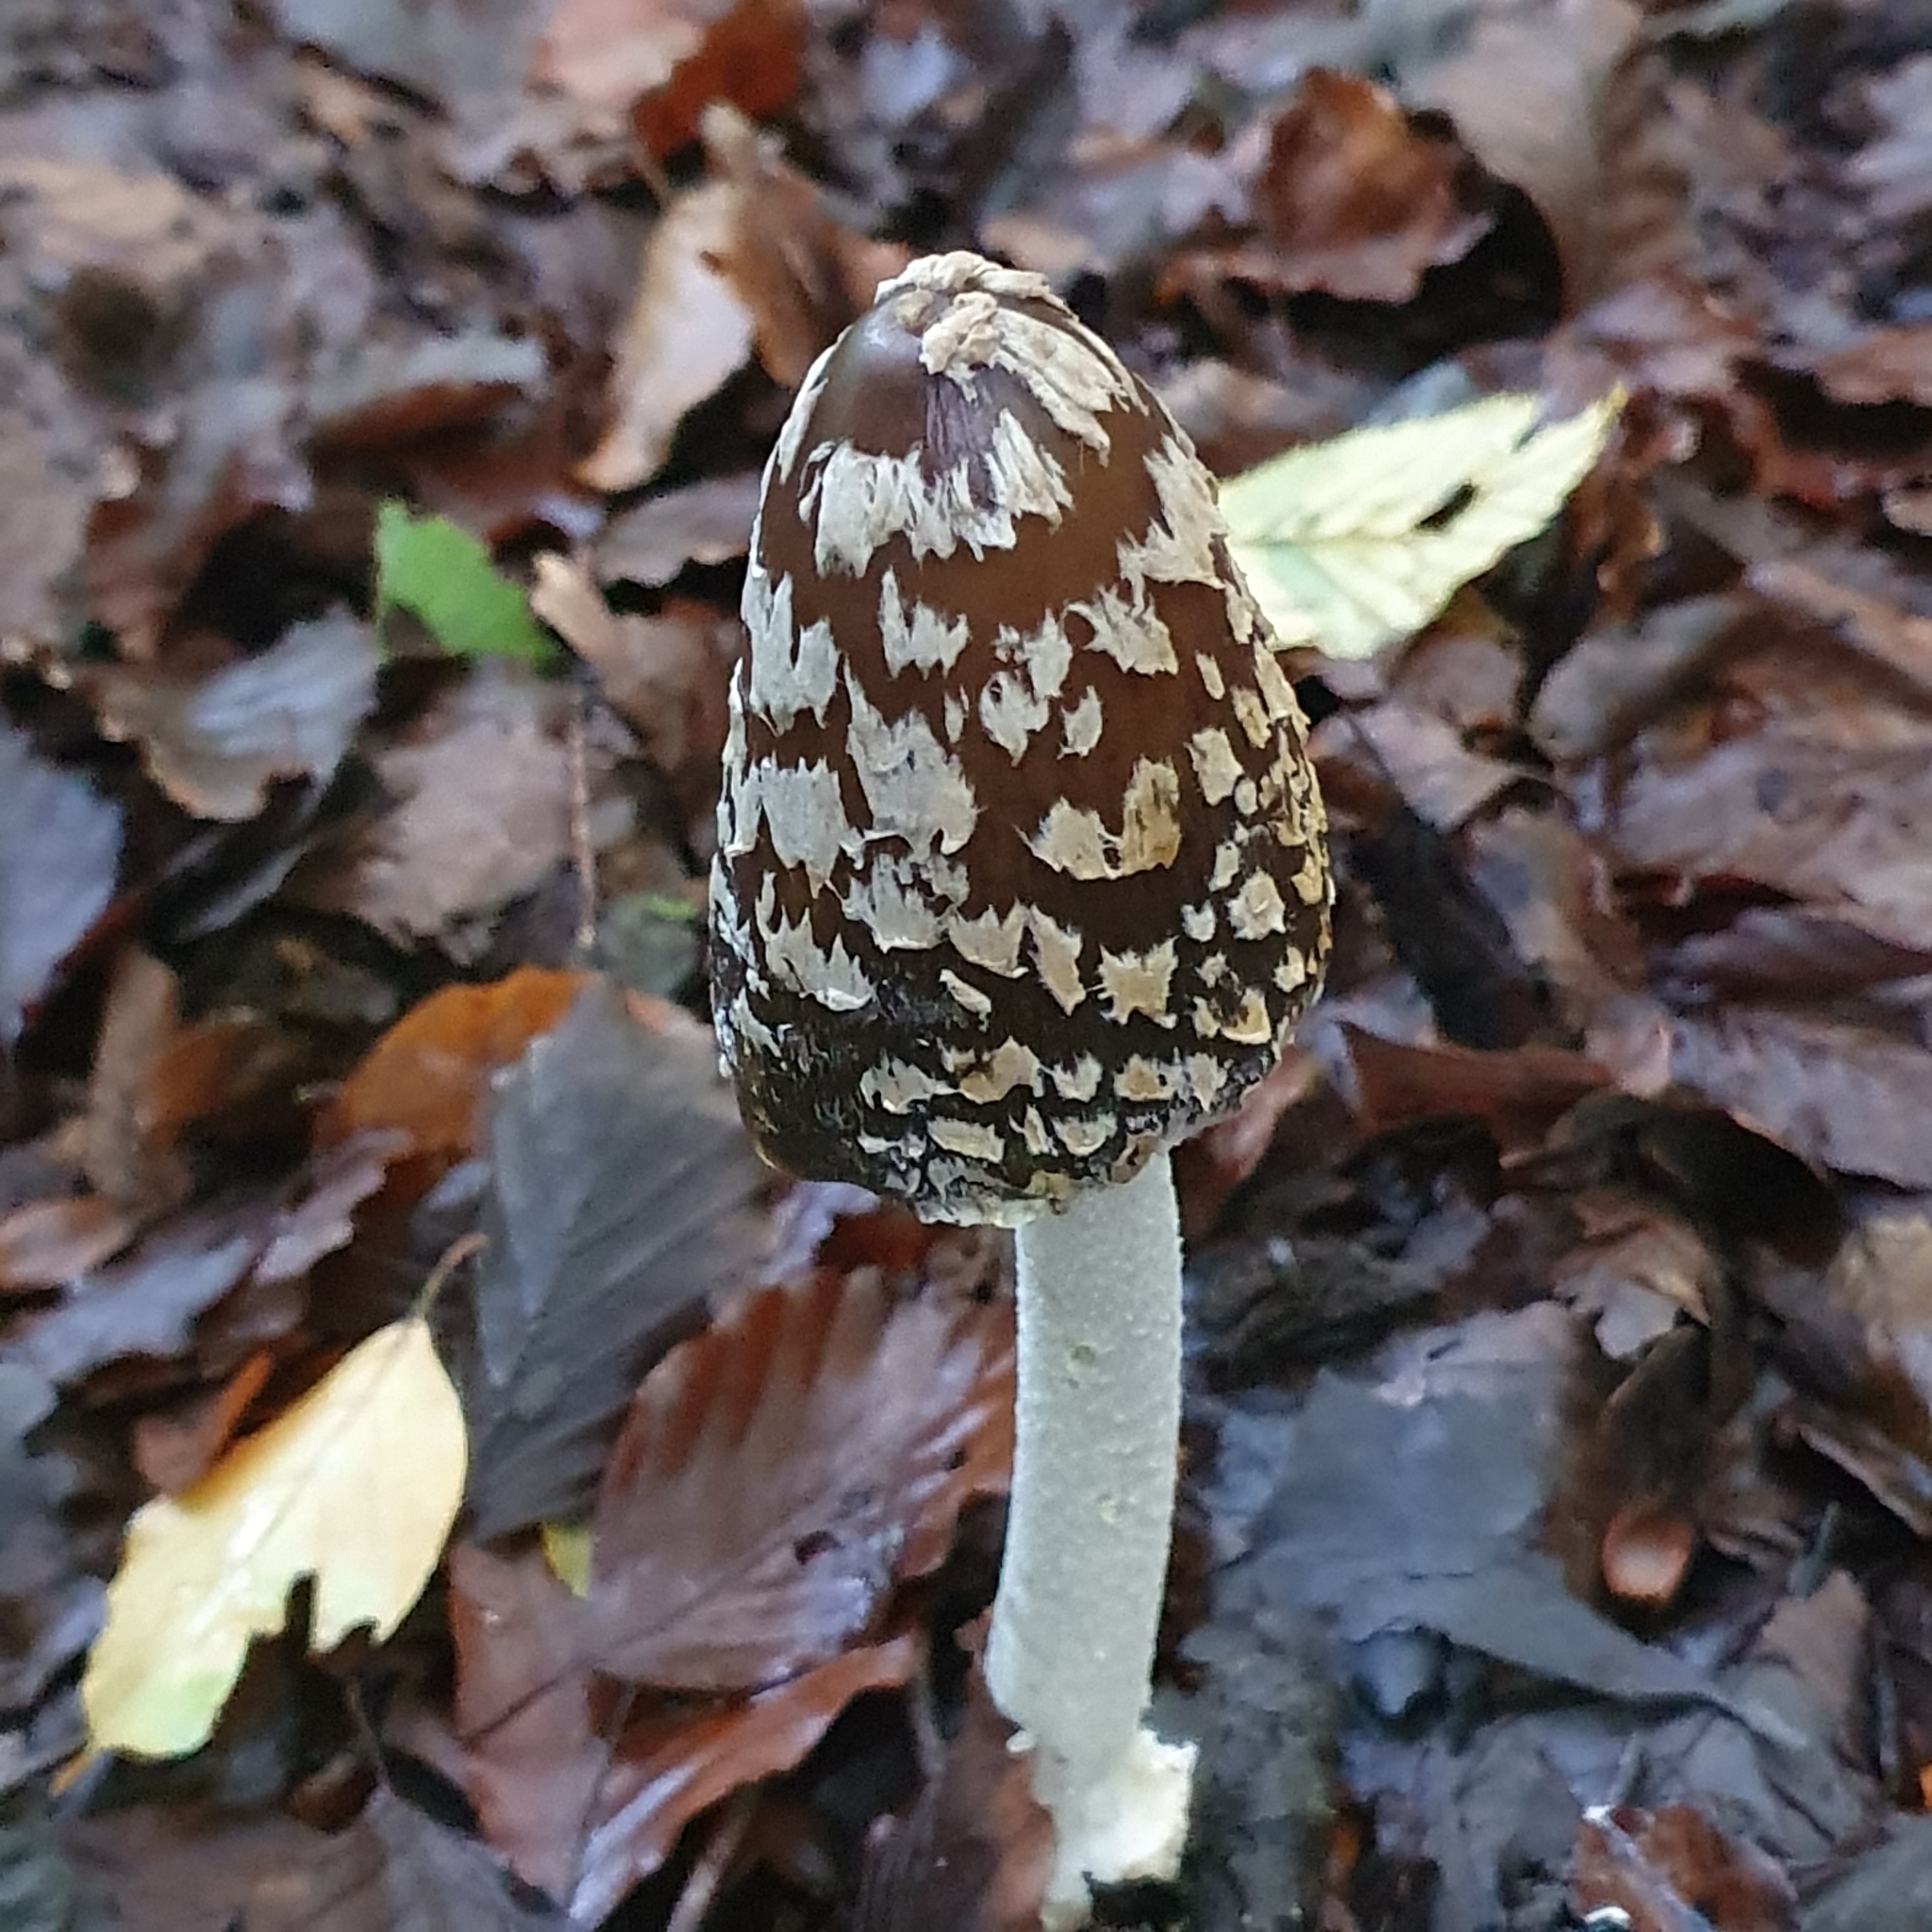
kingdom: Fungi
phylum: Basidiomycota
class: Agaricomycetes
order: Agaricales
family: Psathyrellaceae
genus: Coprinopsis
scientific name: Coprinopsis picacea
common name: Magpie inkcap
